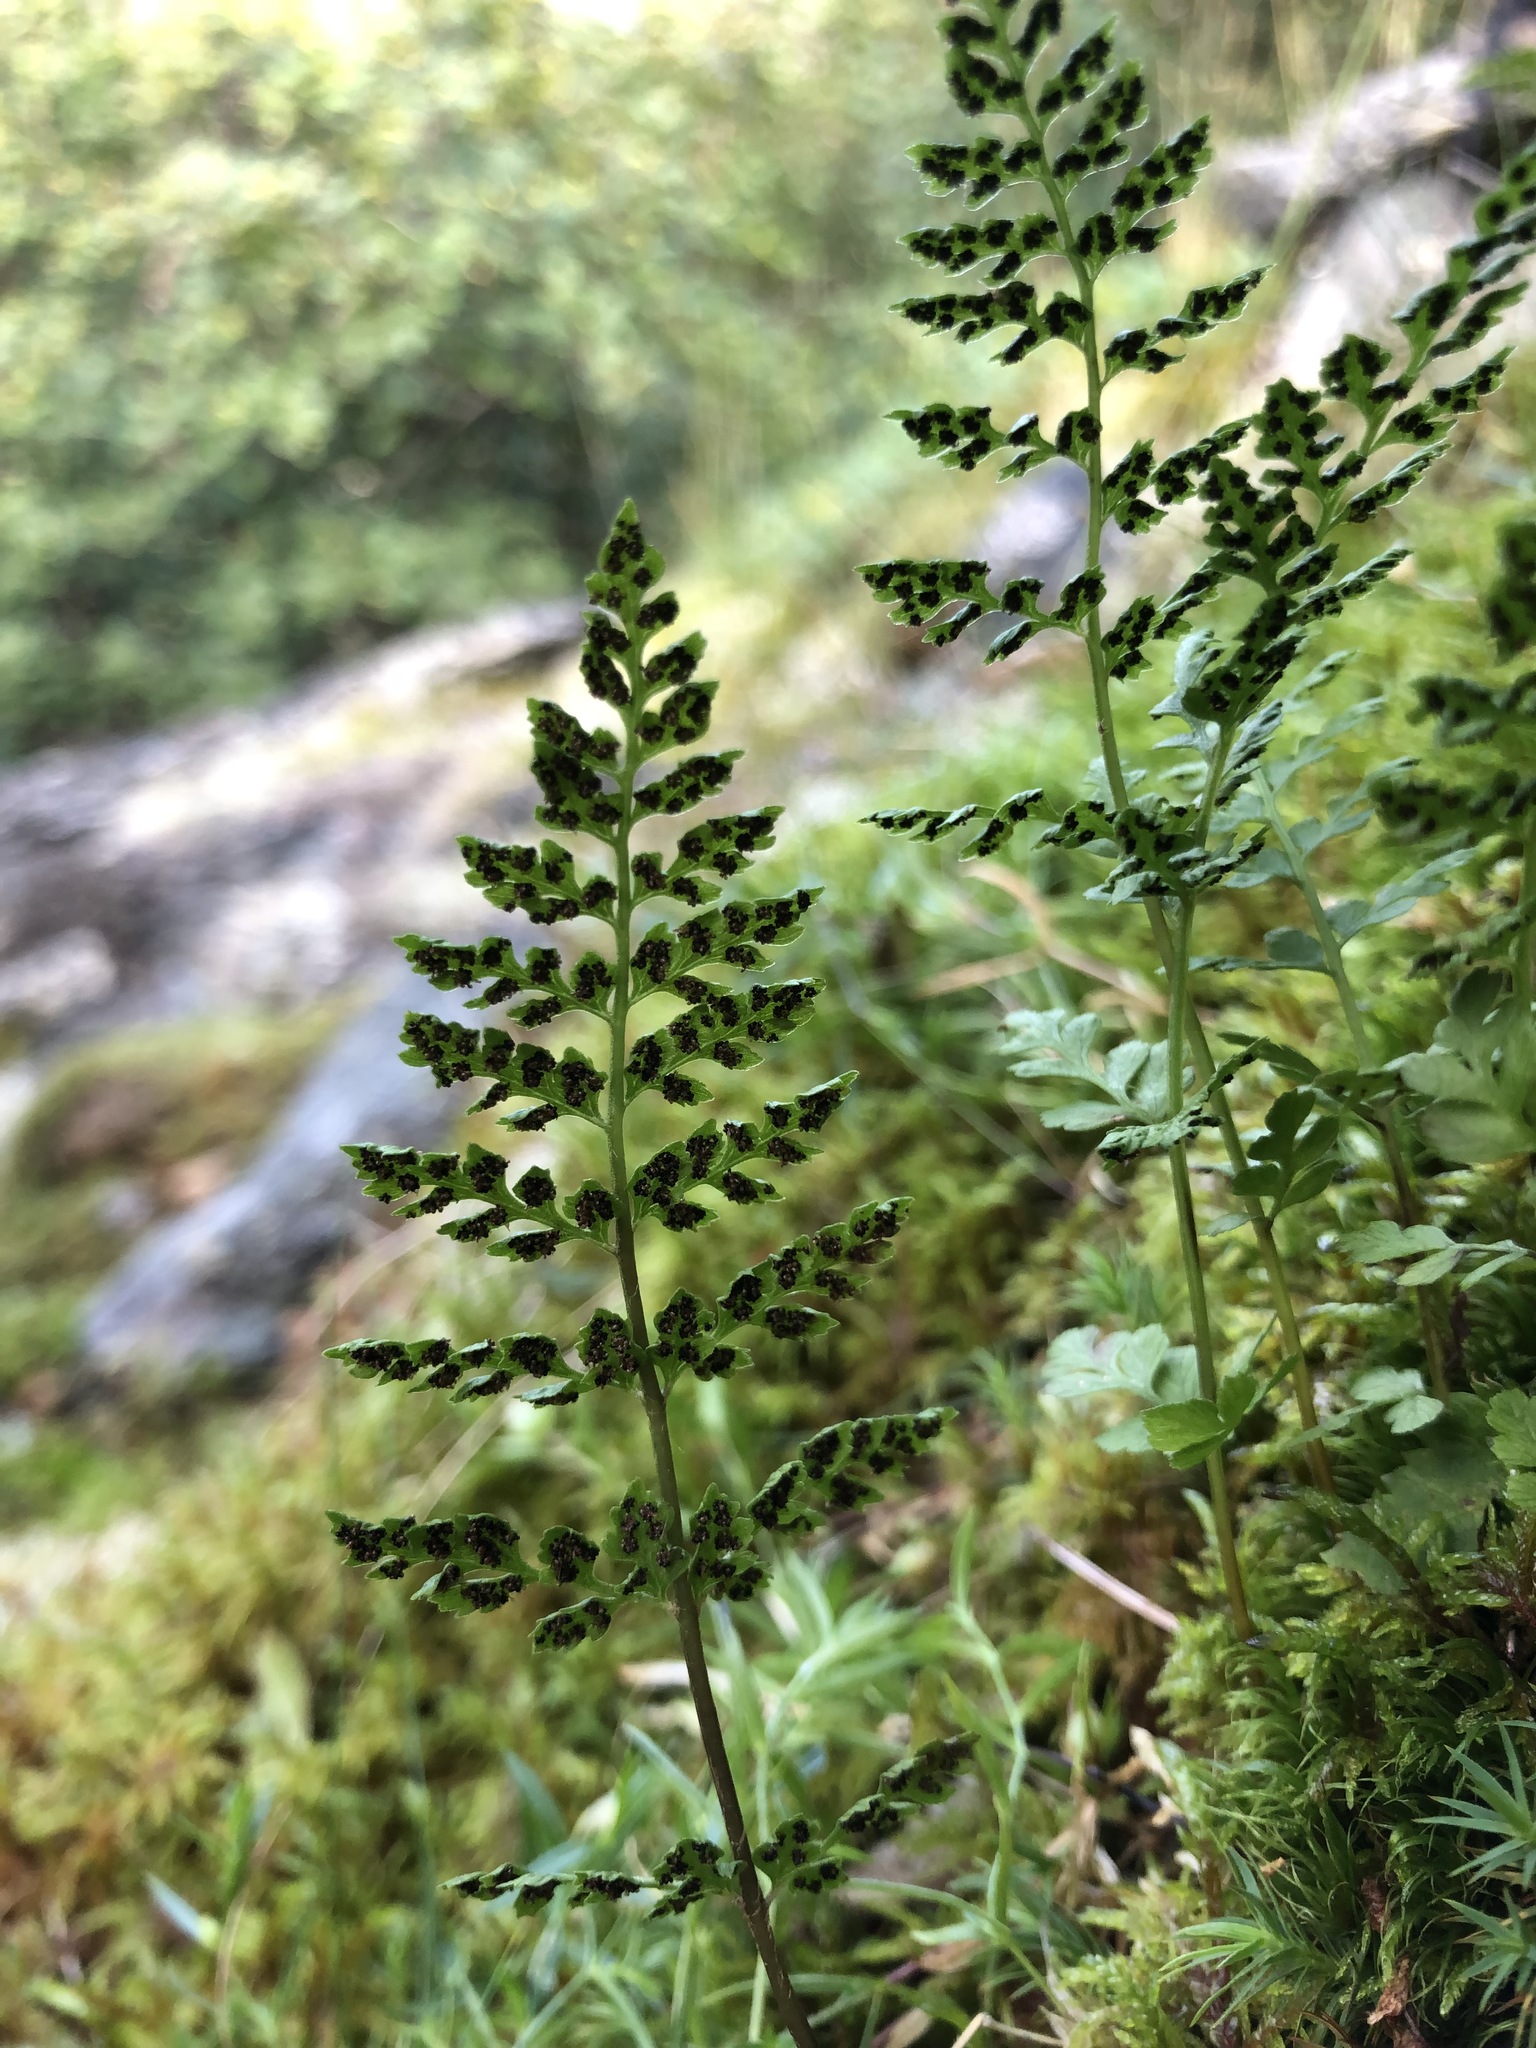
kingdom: Plantae
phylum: Tracheophyta
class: Polypodiopsida
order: Polypodiales
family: Cystopteridaceae
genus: Cystopteris
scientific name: Cystopteris fragilis
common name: Brittle bladder fern
